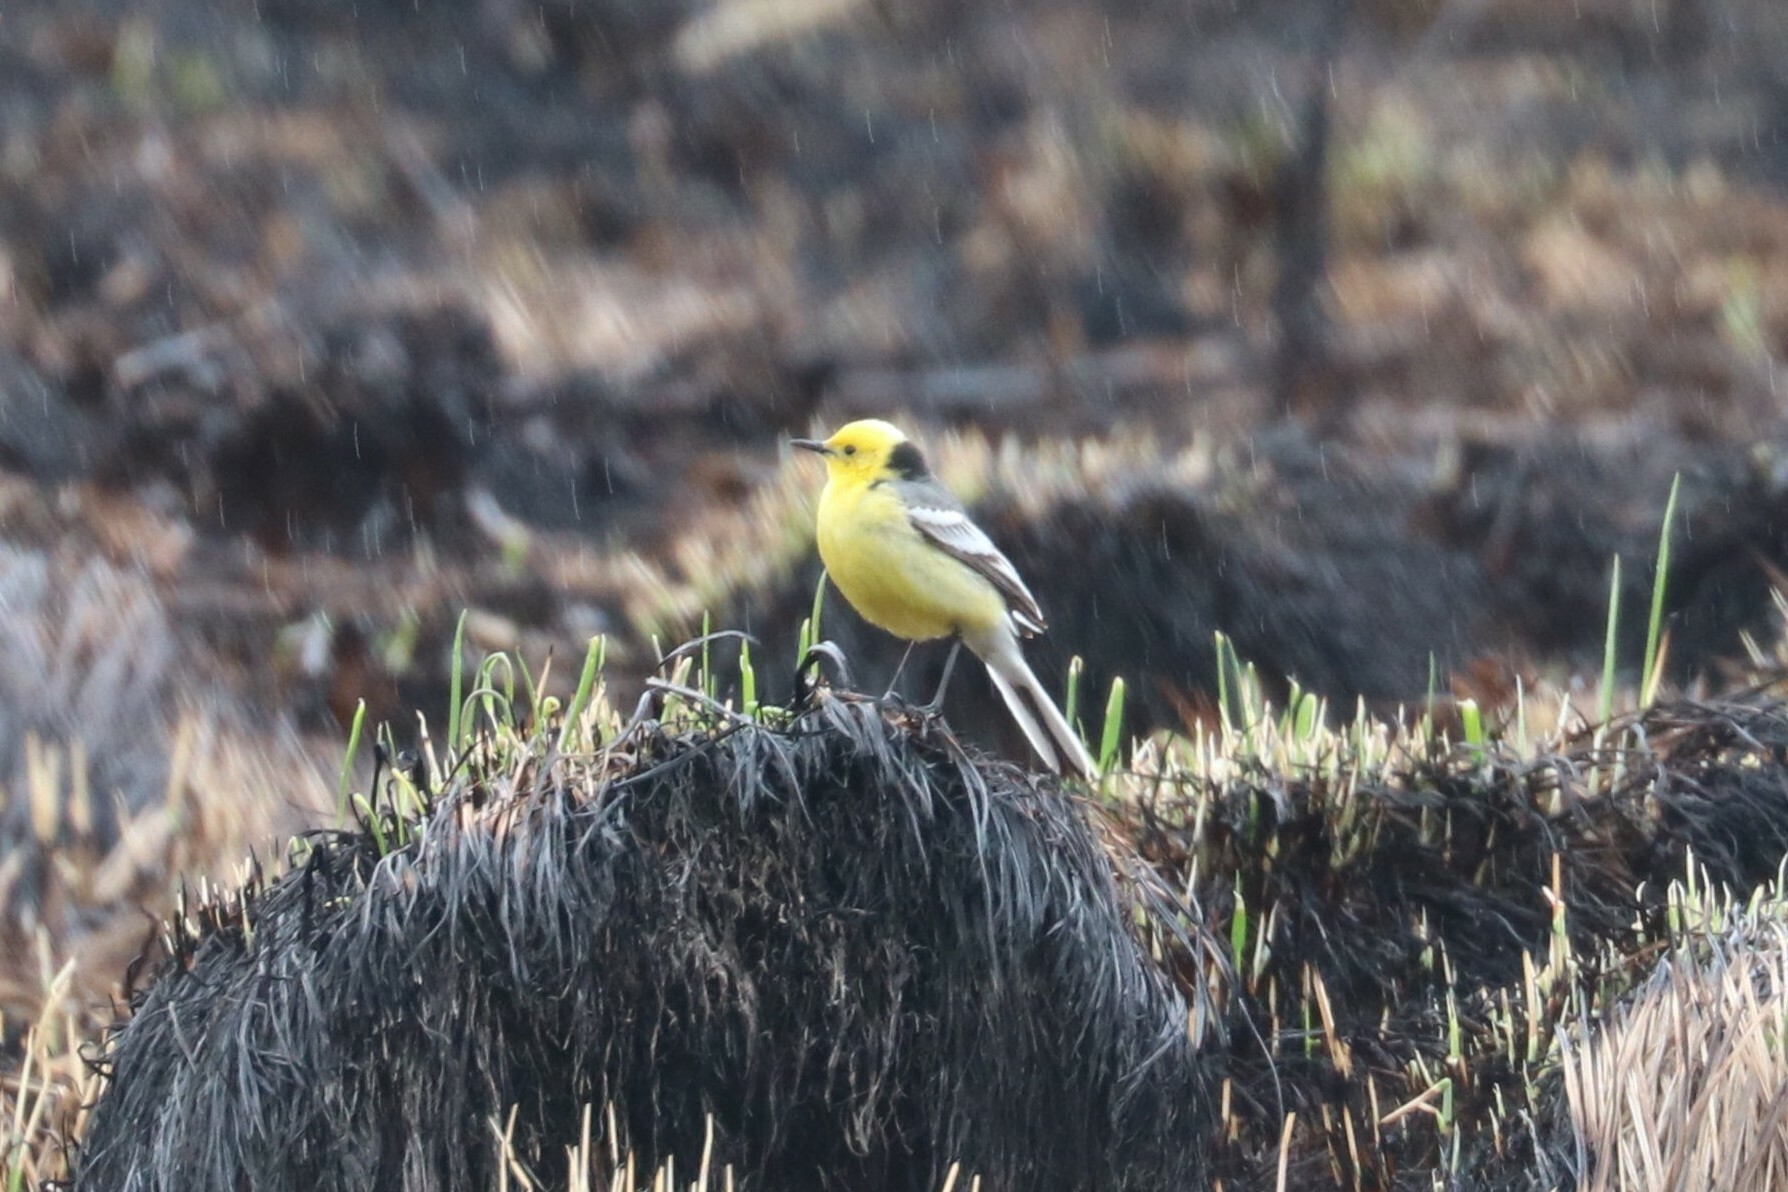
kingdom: Animalia
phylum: Chordata
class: Aves
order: Passeriformes
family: Motacillidae
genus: Motacilla
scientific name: Motacilla citreola
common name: Citrine wagtail
